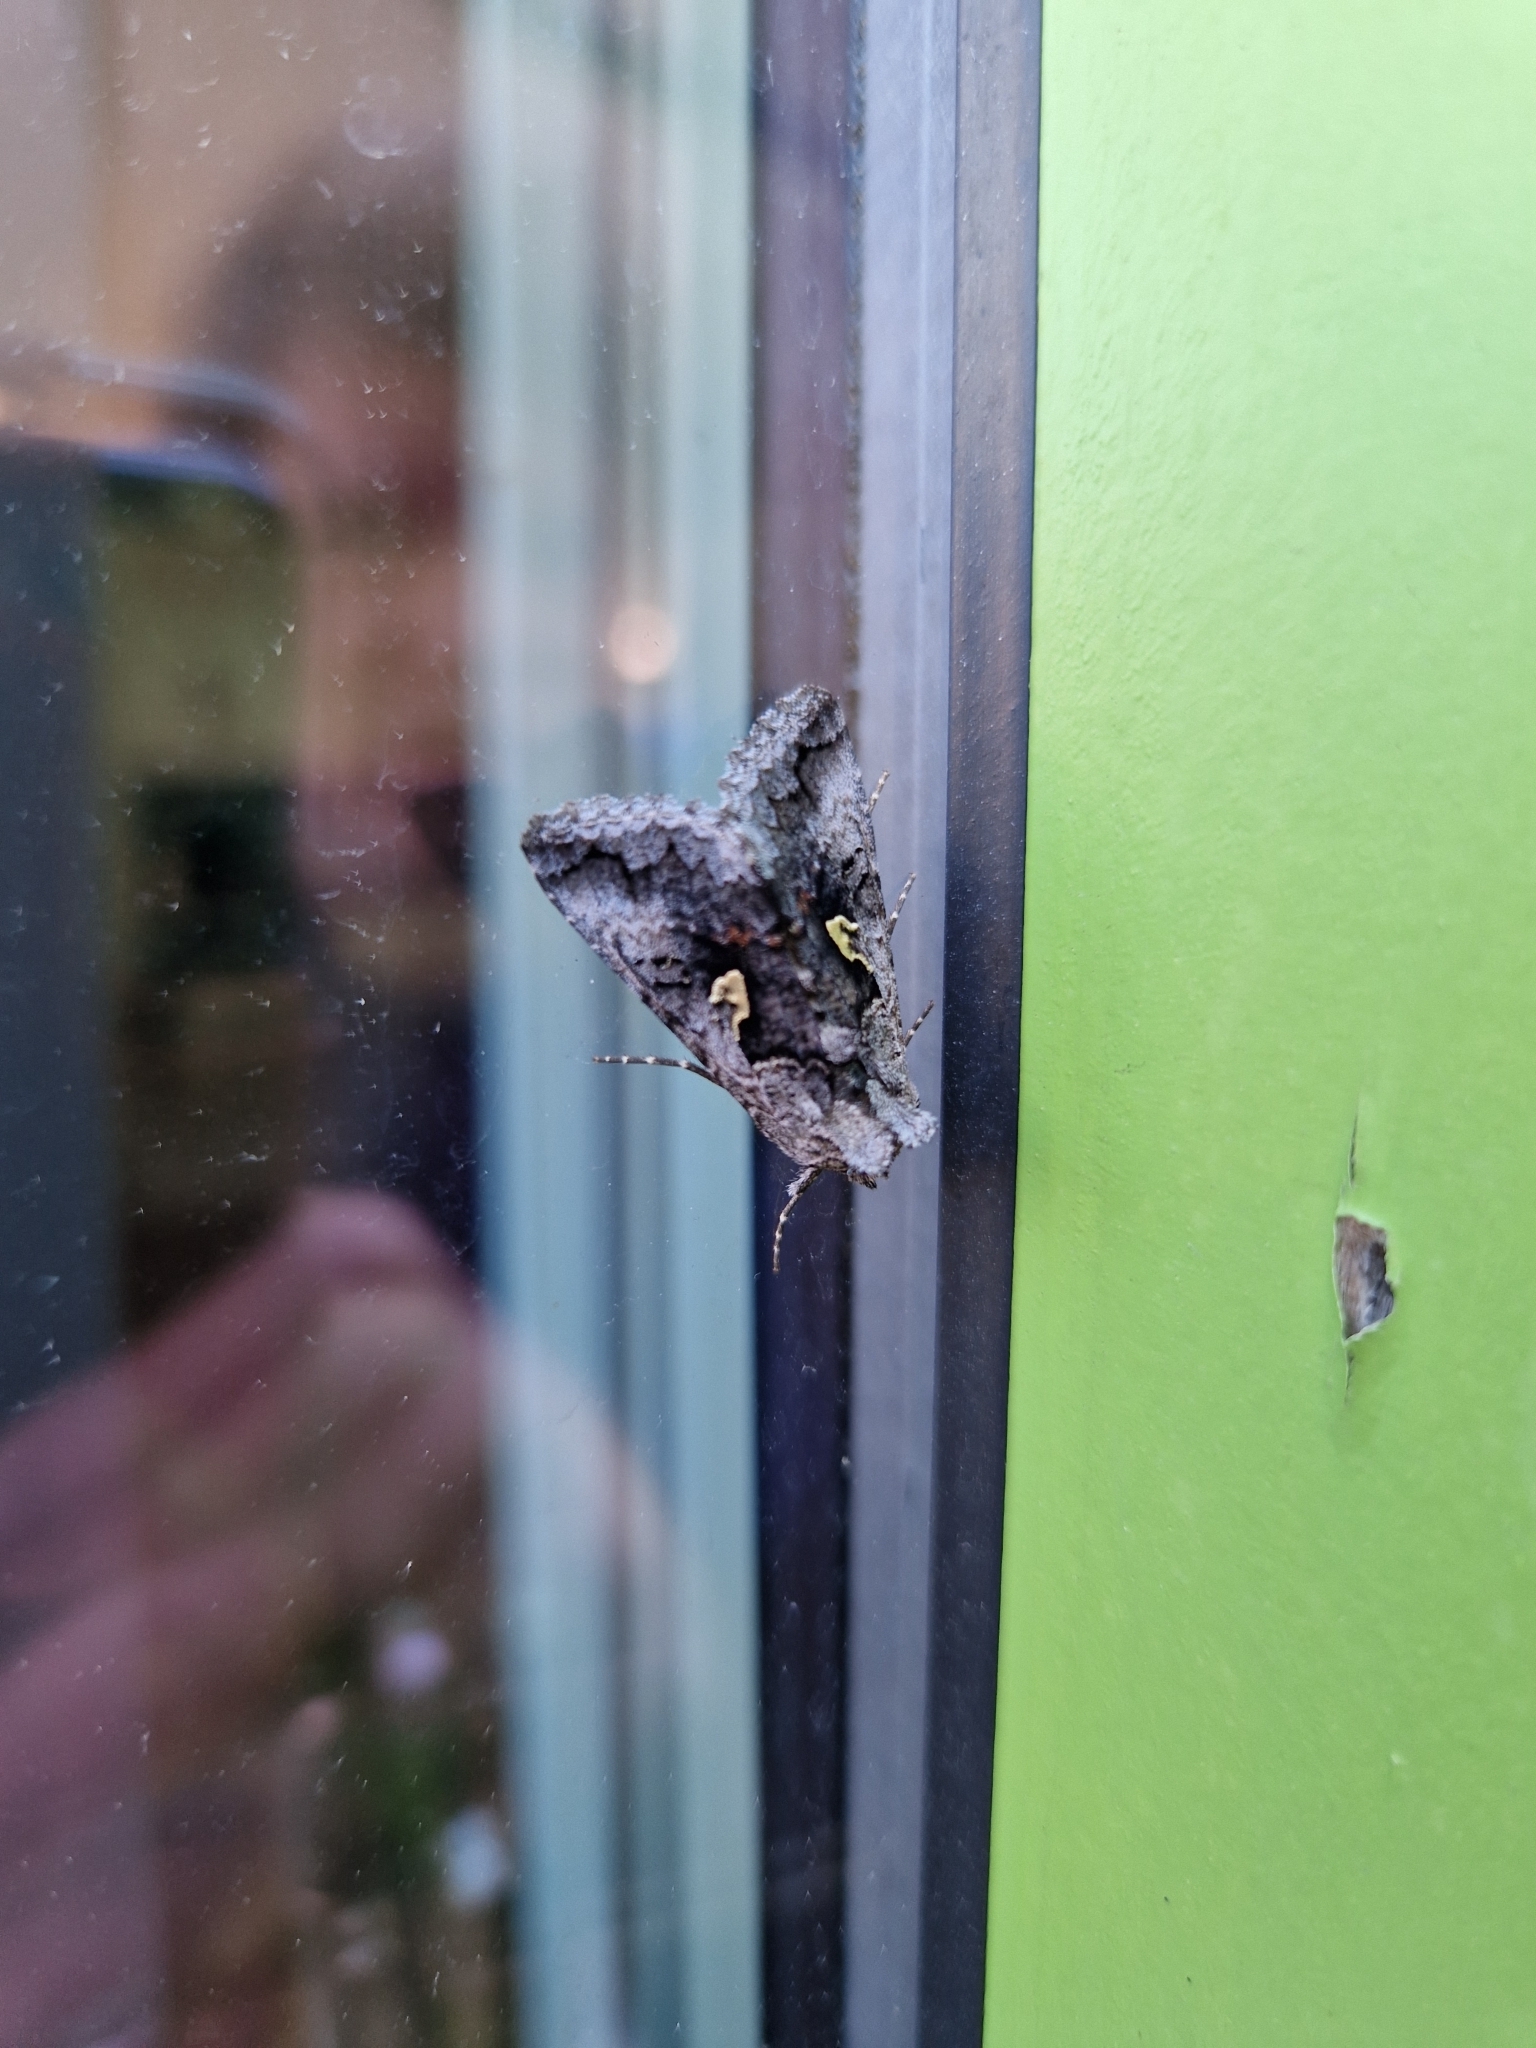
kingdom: Animalia
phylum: Arthropoda
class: Insecta
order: Lepidoptera
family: Noctuidae
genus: Syngrapha
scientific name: Syngrapha interrogationis
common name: Scarce silver y
